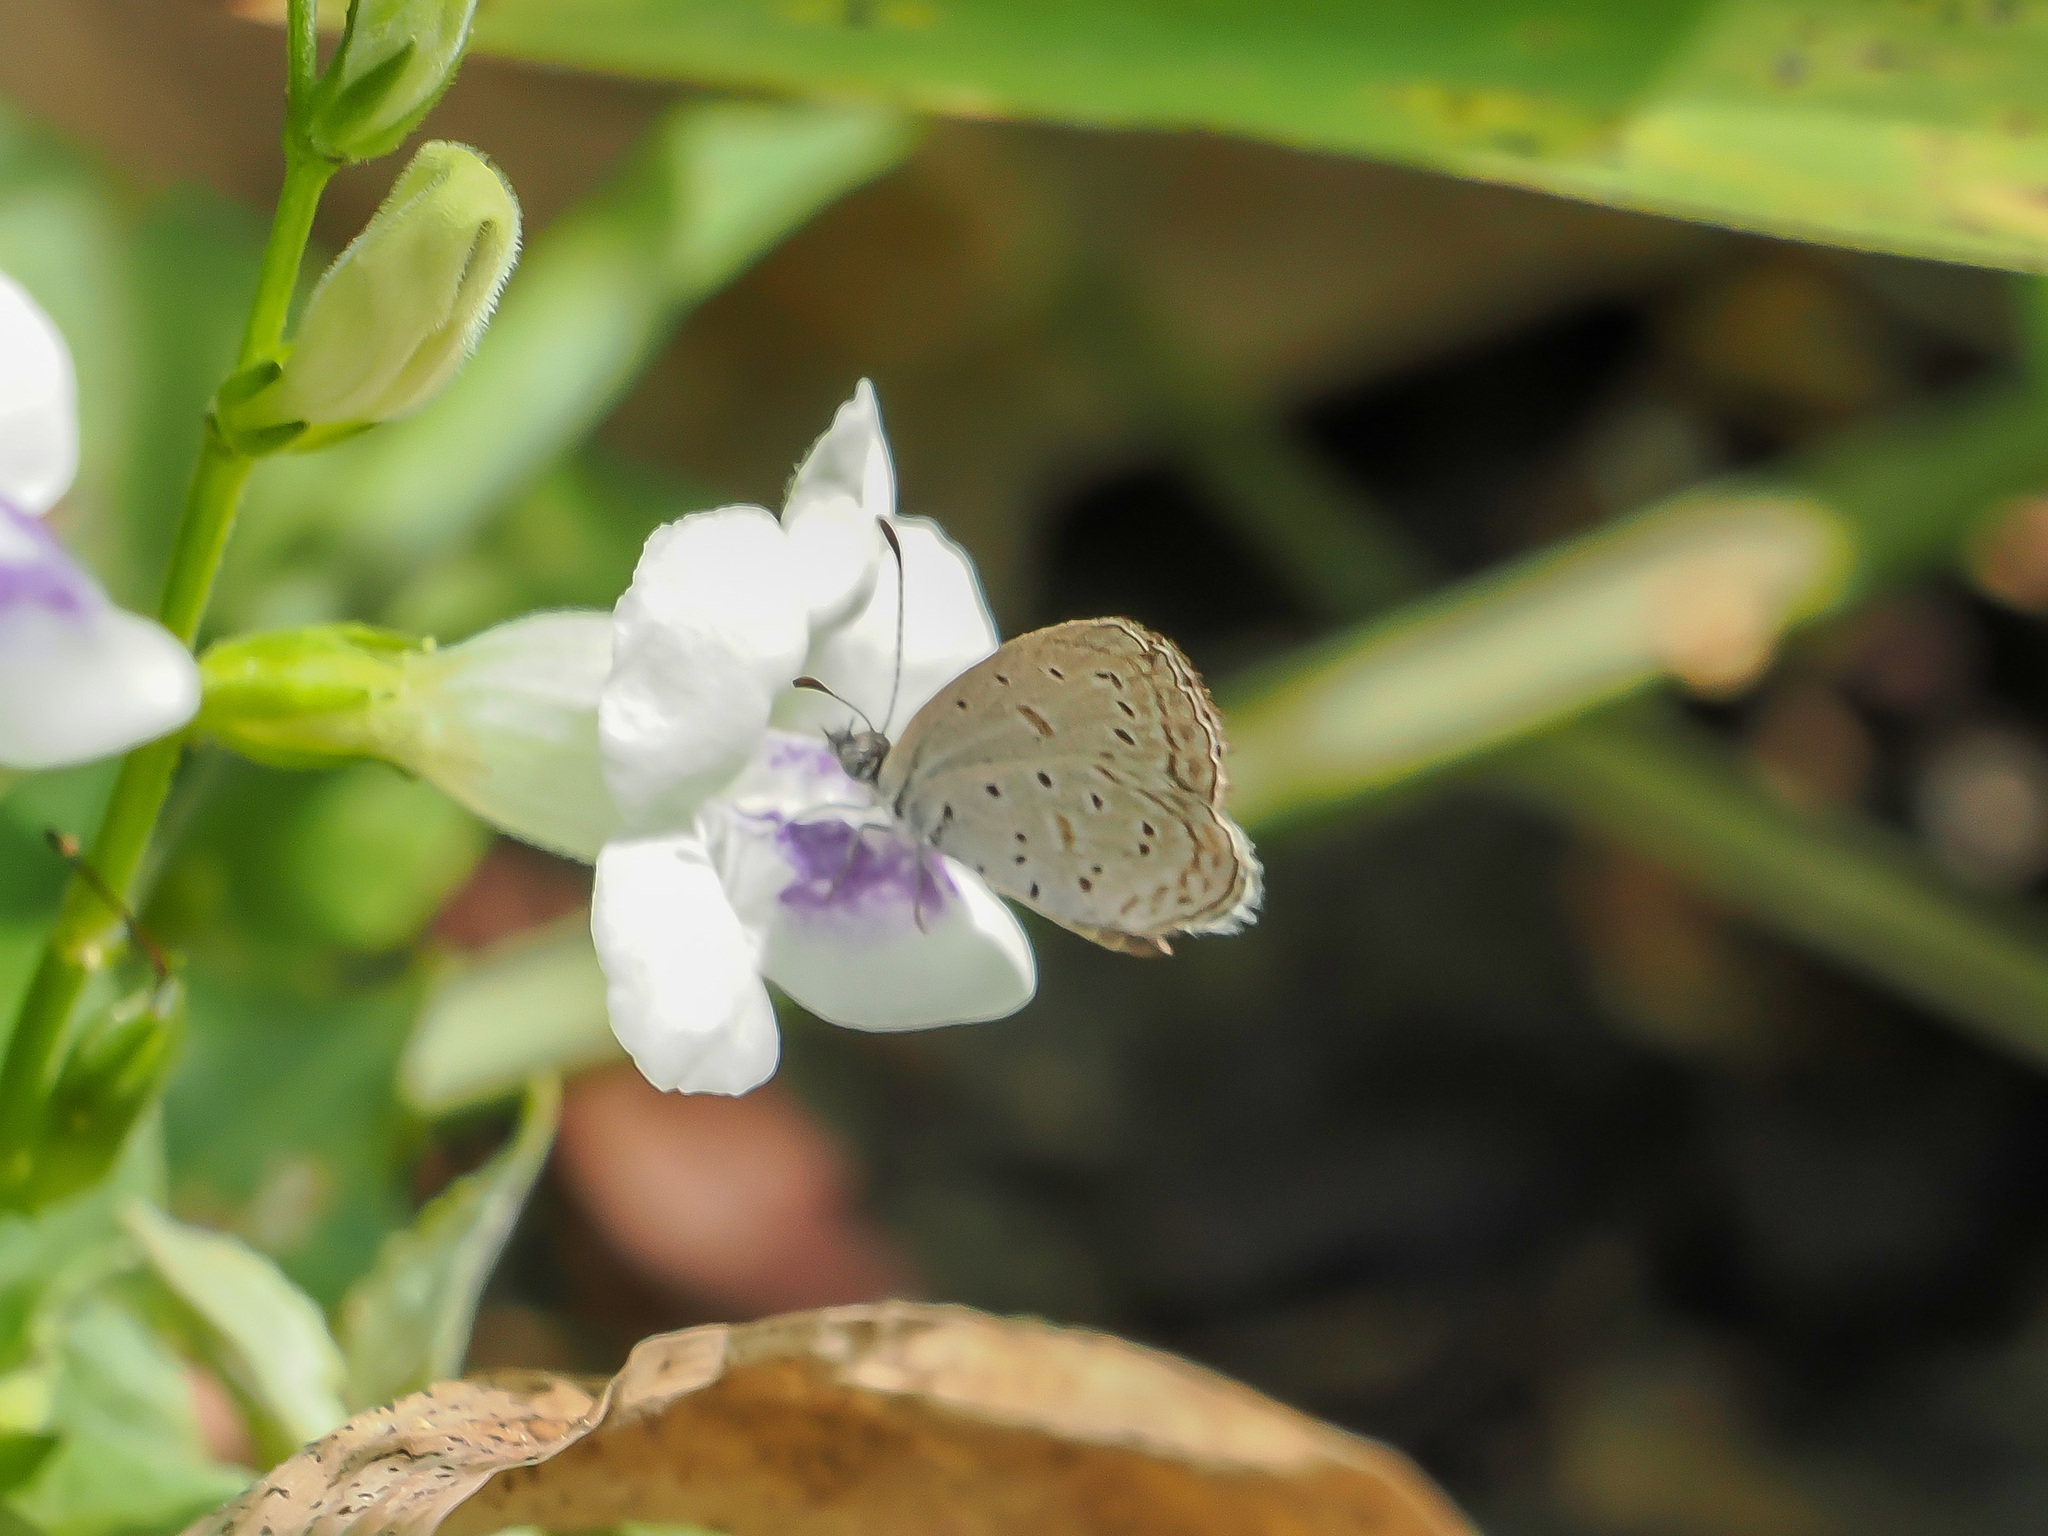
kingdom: Animalia
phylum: Arthropoda
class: Insecta
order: Lepidoptera
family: Lycaenidae
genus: Zizula
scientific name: Zizula hylax
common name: Gaika blue
